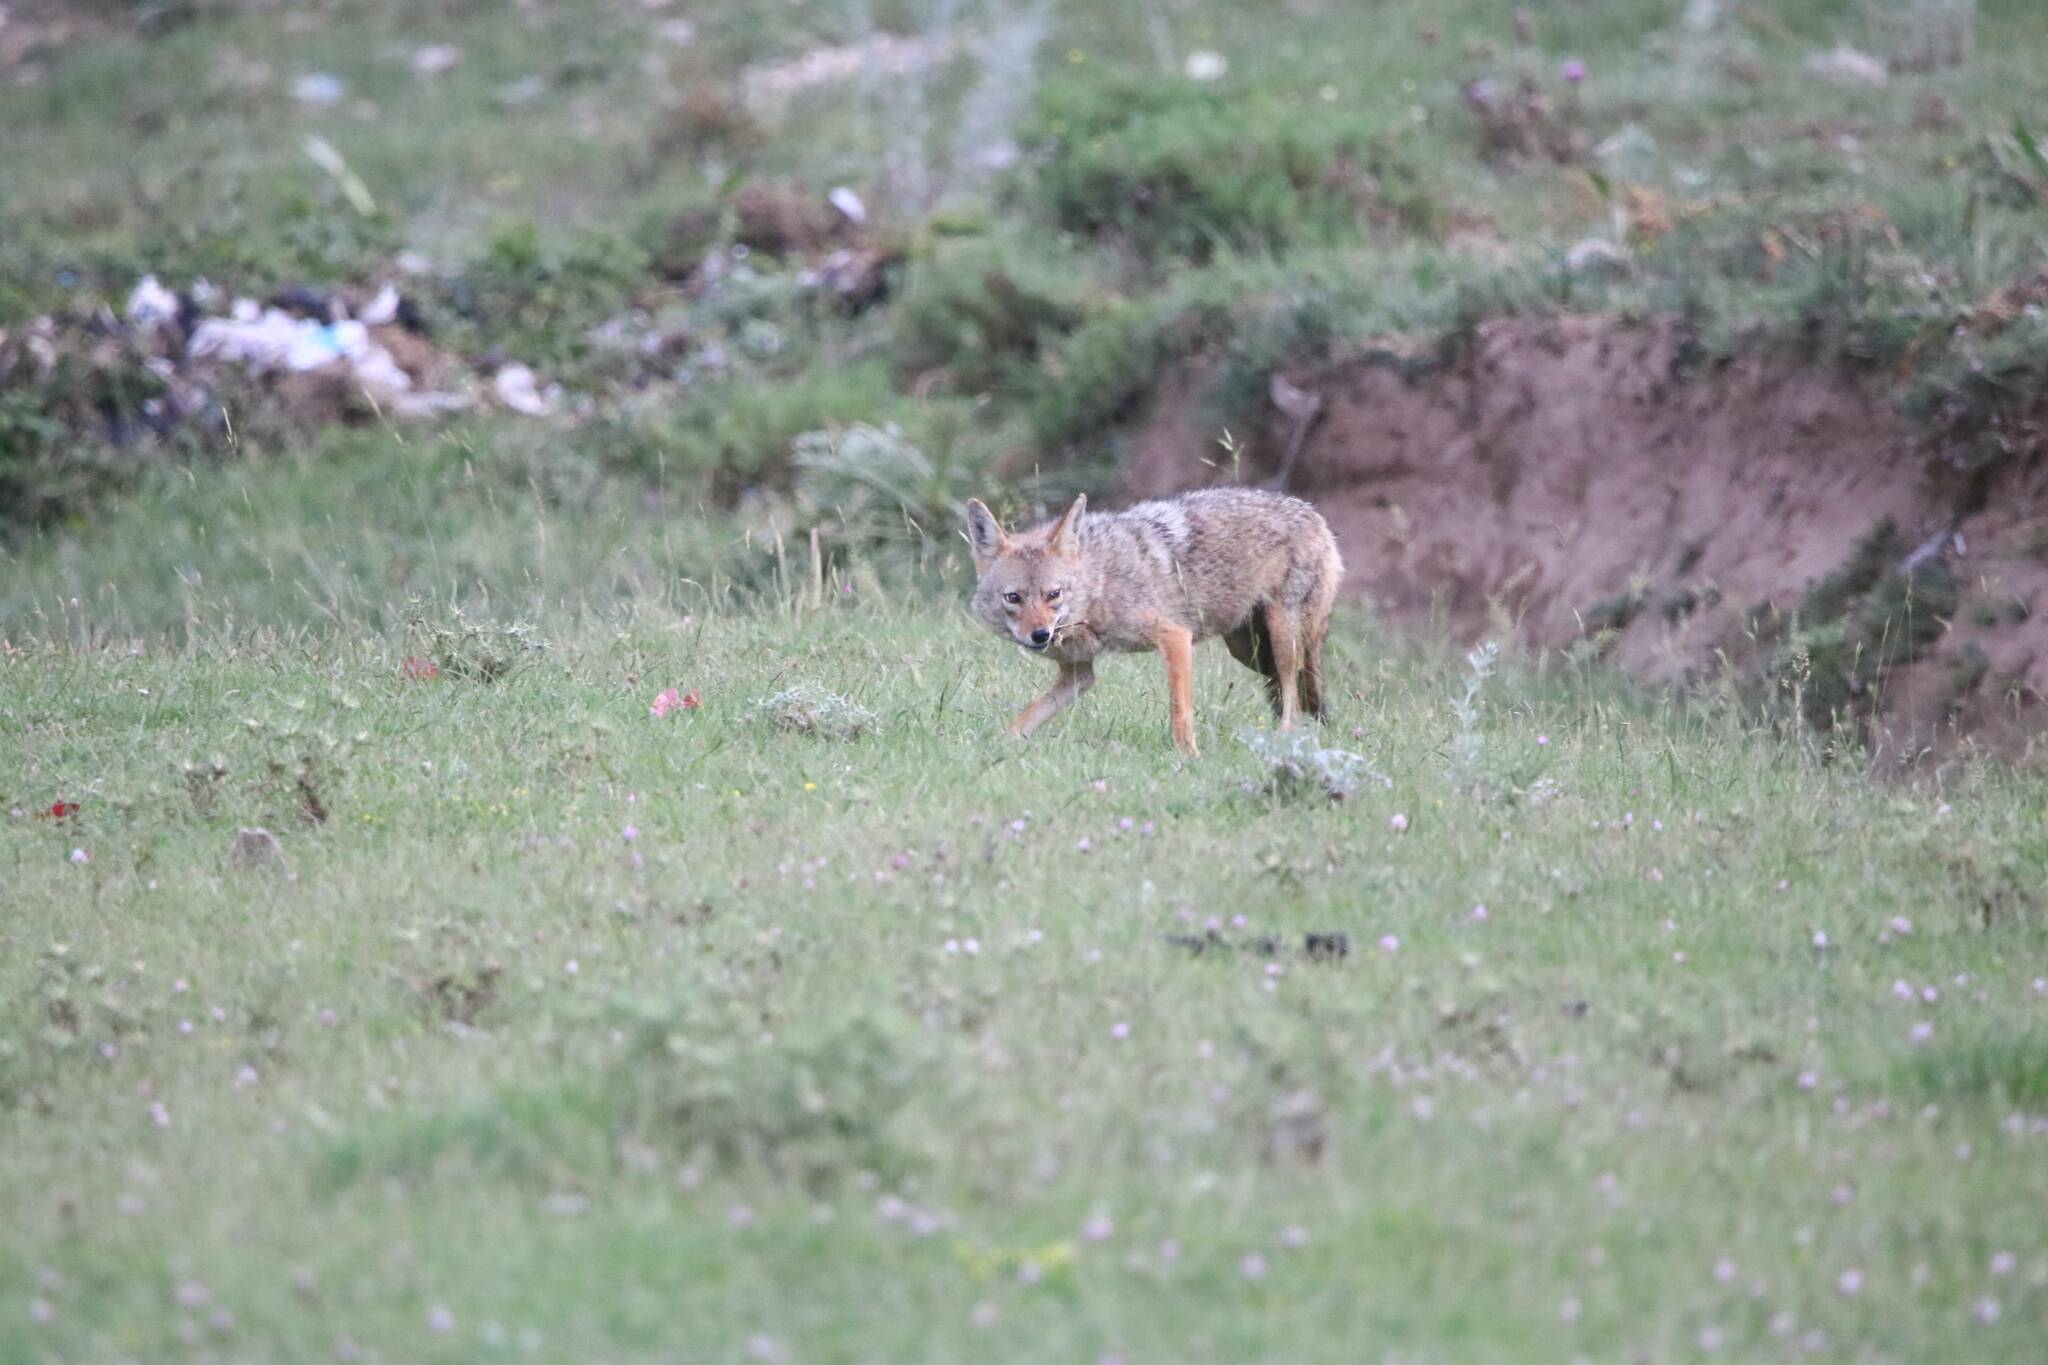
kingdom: Animalia
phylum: Chordata
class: Mammalia
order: Carnivora
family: Canidae
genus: Canis
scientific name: Canis lupaster
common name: African golden wolf
